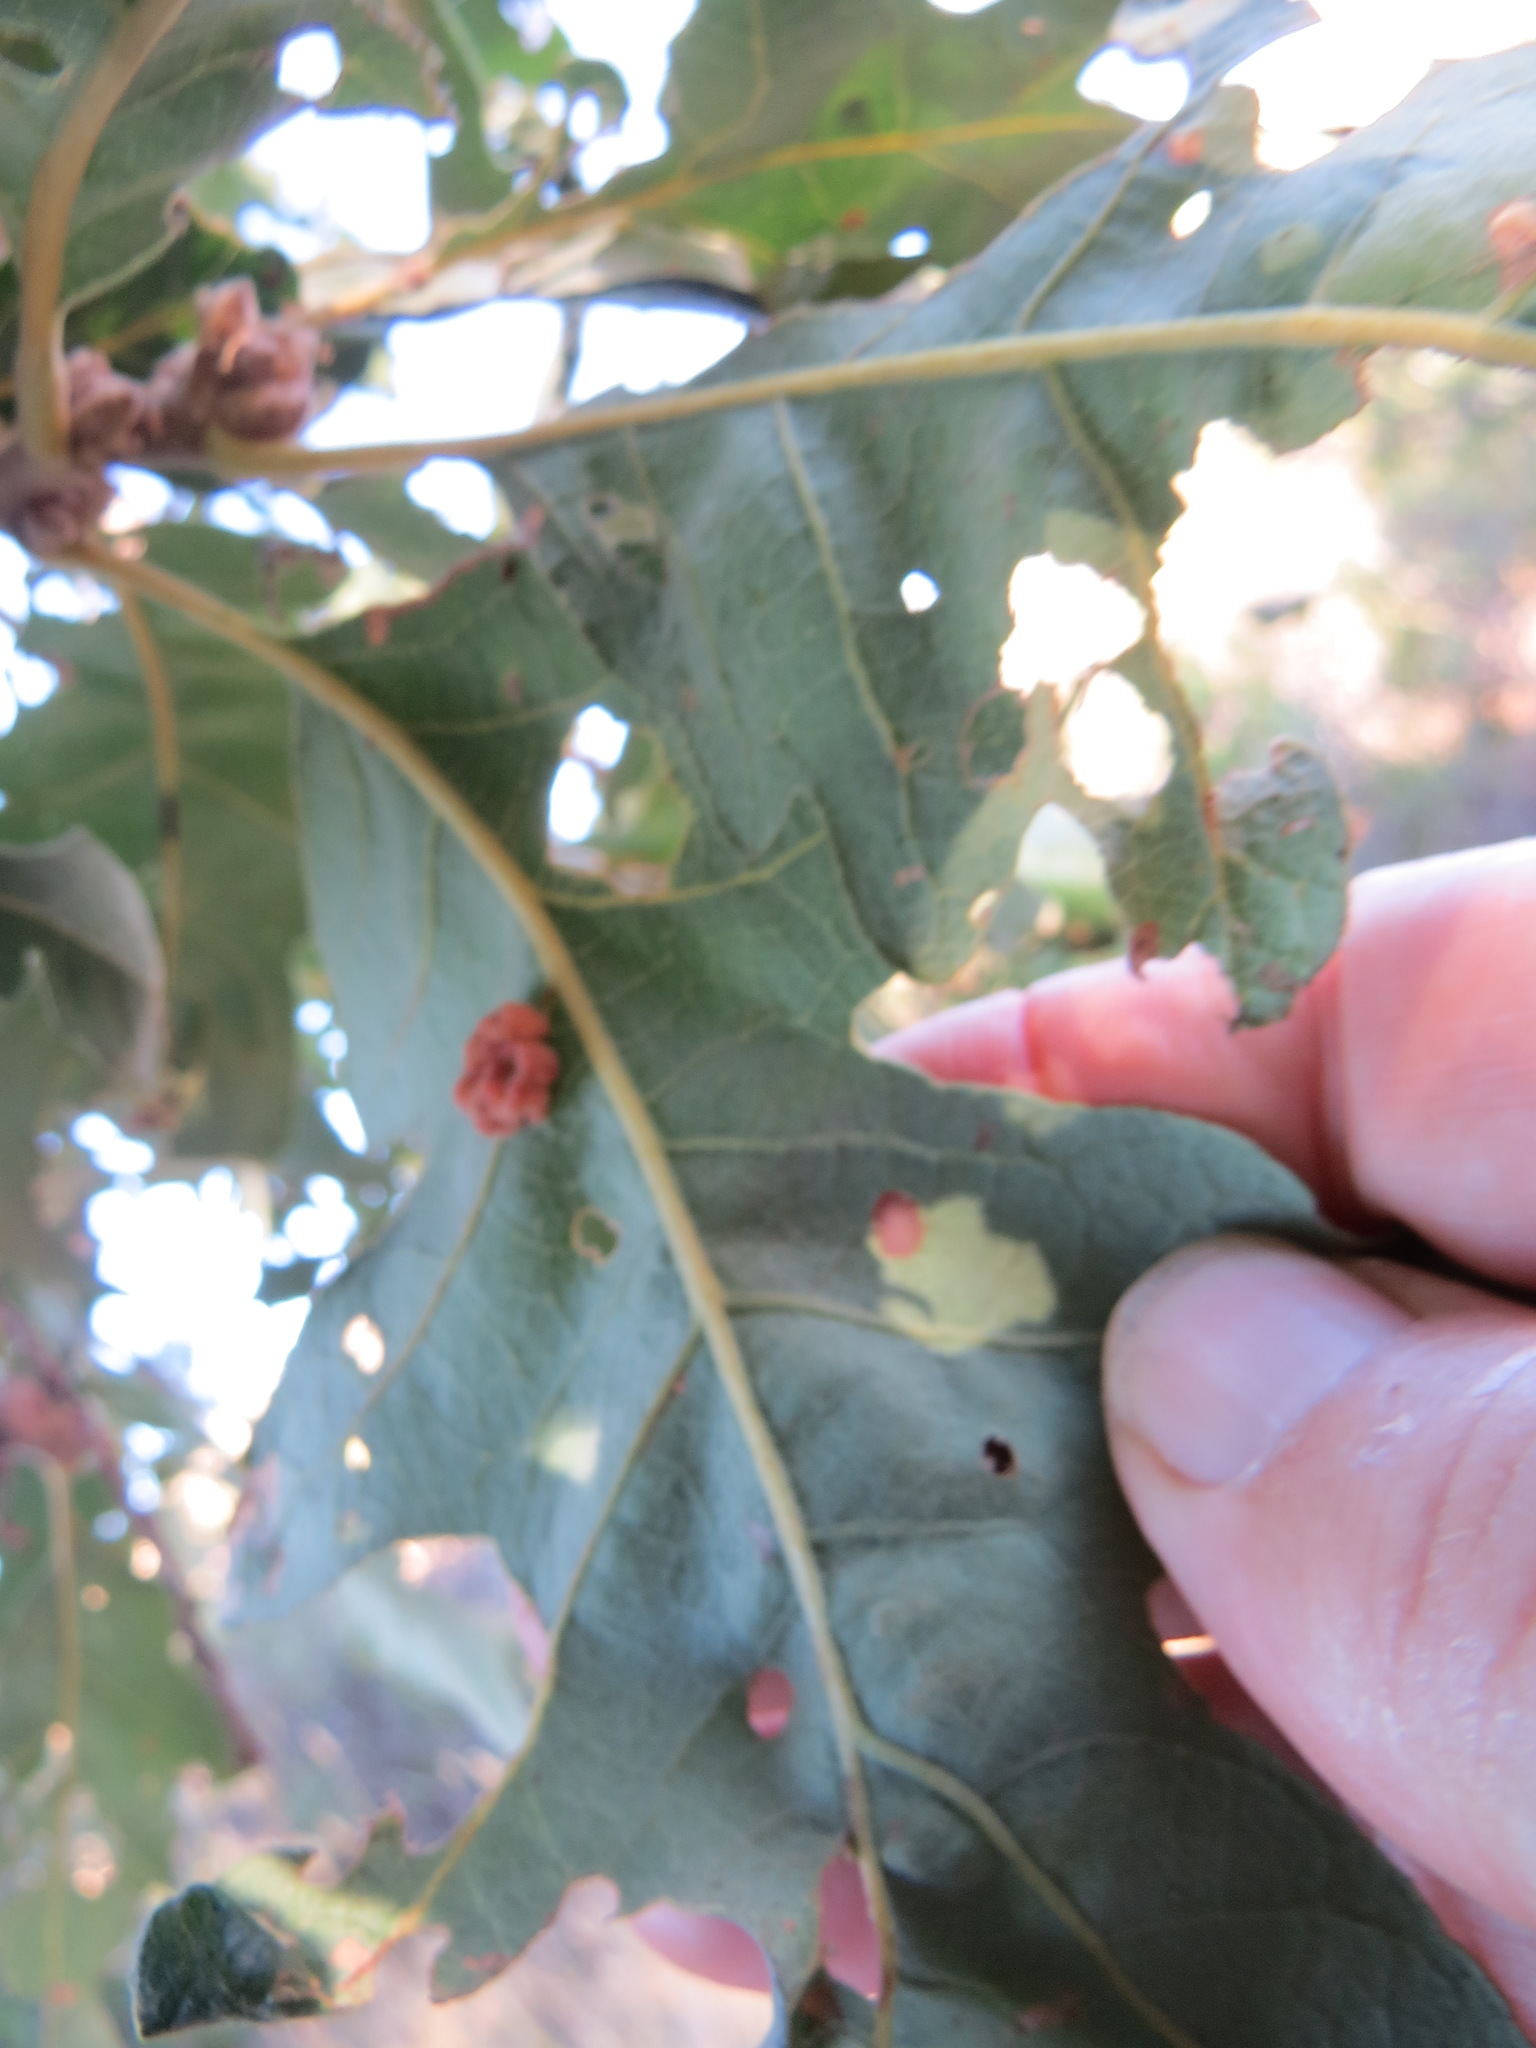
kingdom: Animalia
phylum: Arthropoda
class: Insecta
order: Hymenoptera
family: Cynipidae
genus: Andricus
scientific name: Andricus
